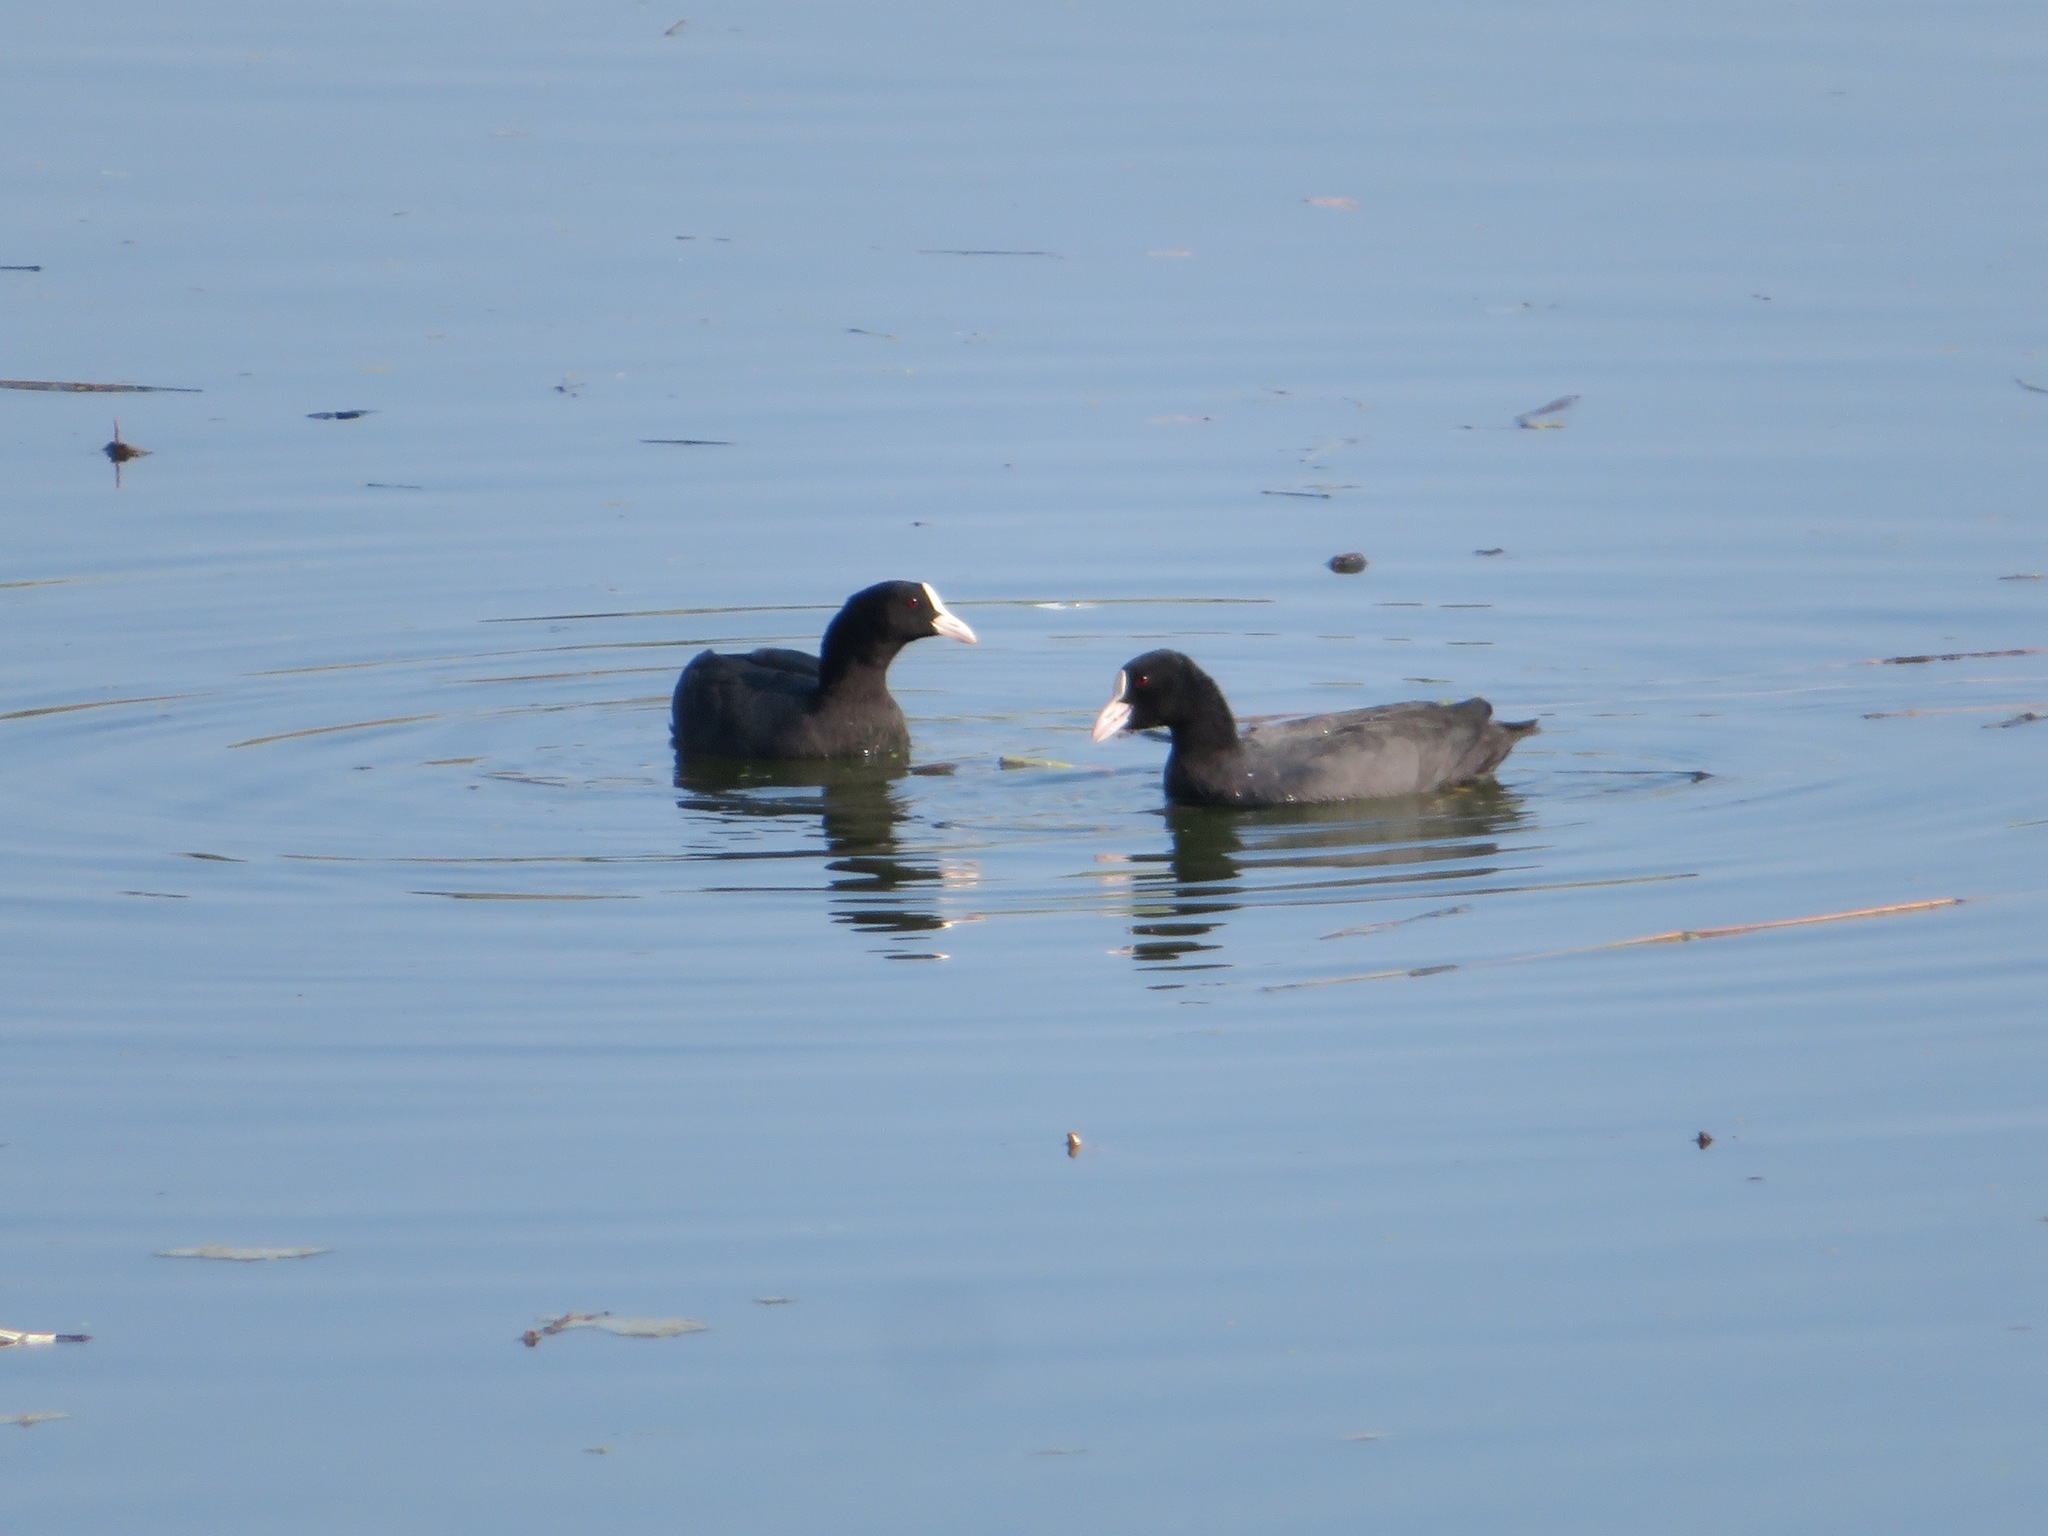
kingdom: Animalia
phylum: Chordata
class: Aves
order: Gruiformes
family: Rallidae
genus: Fulica
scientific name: Fulica atra
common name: Eurasian coot
